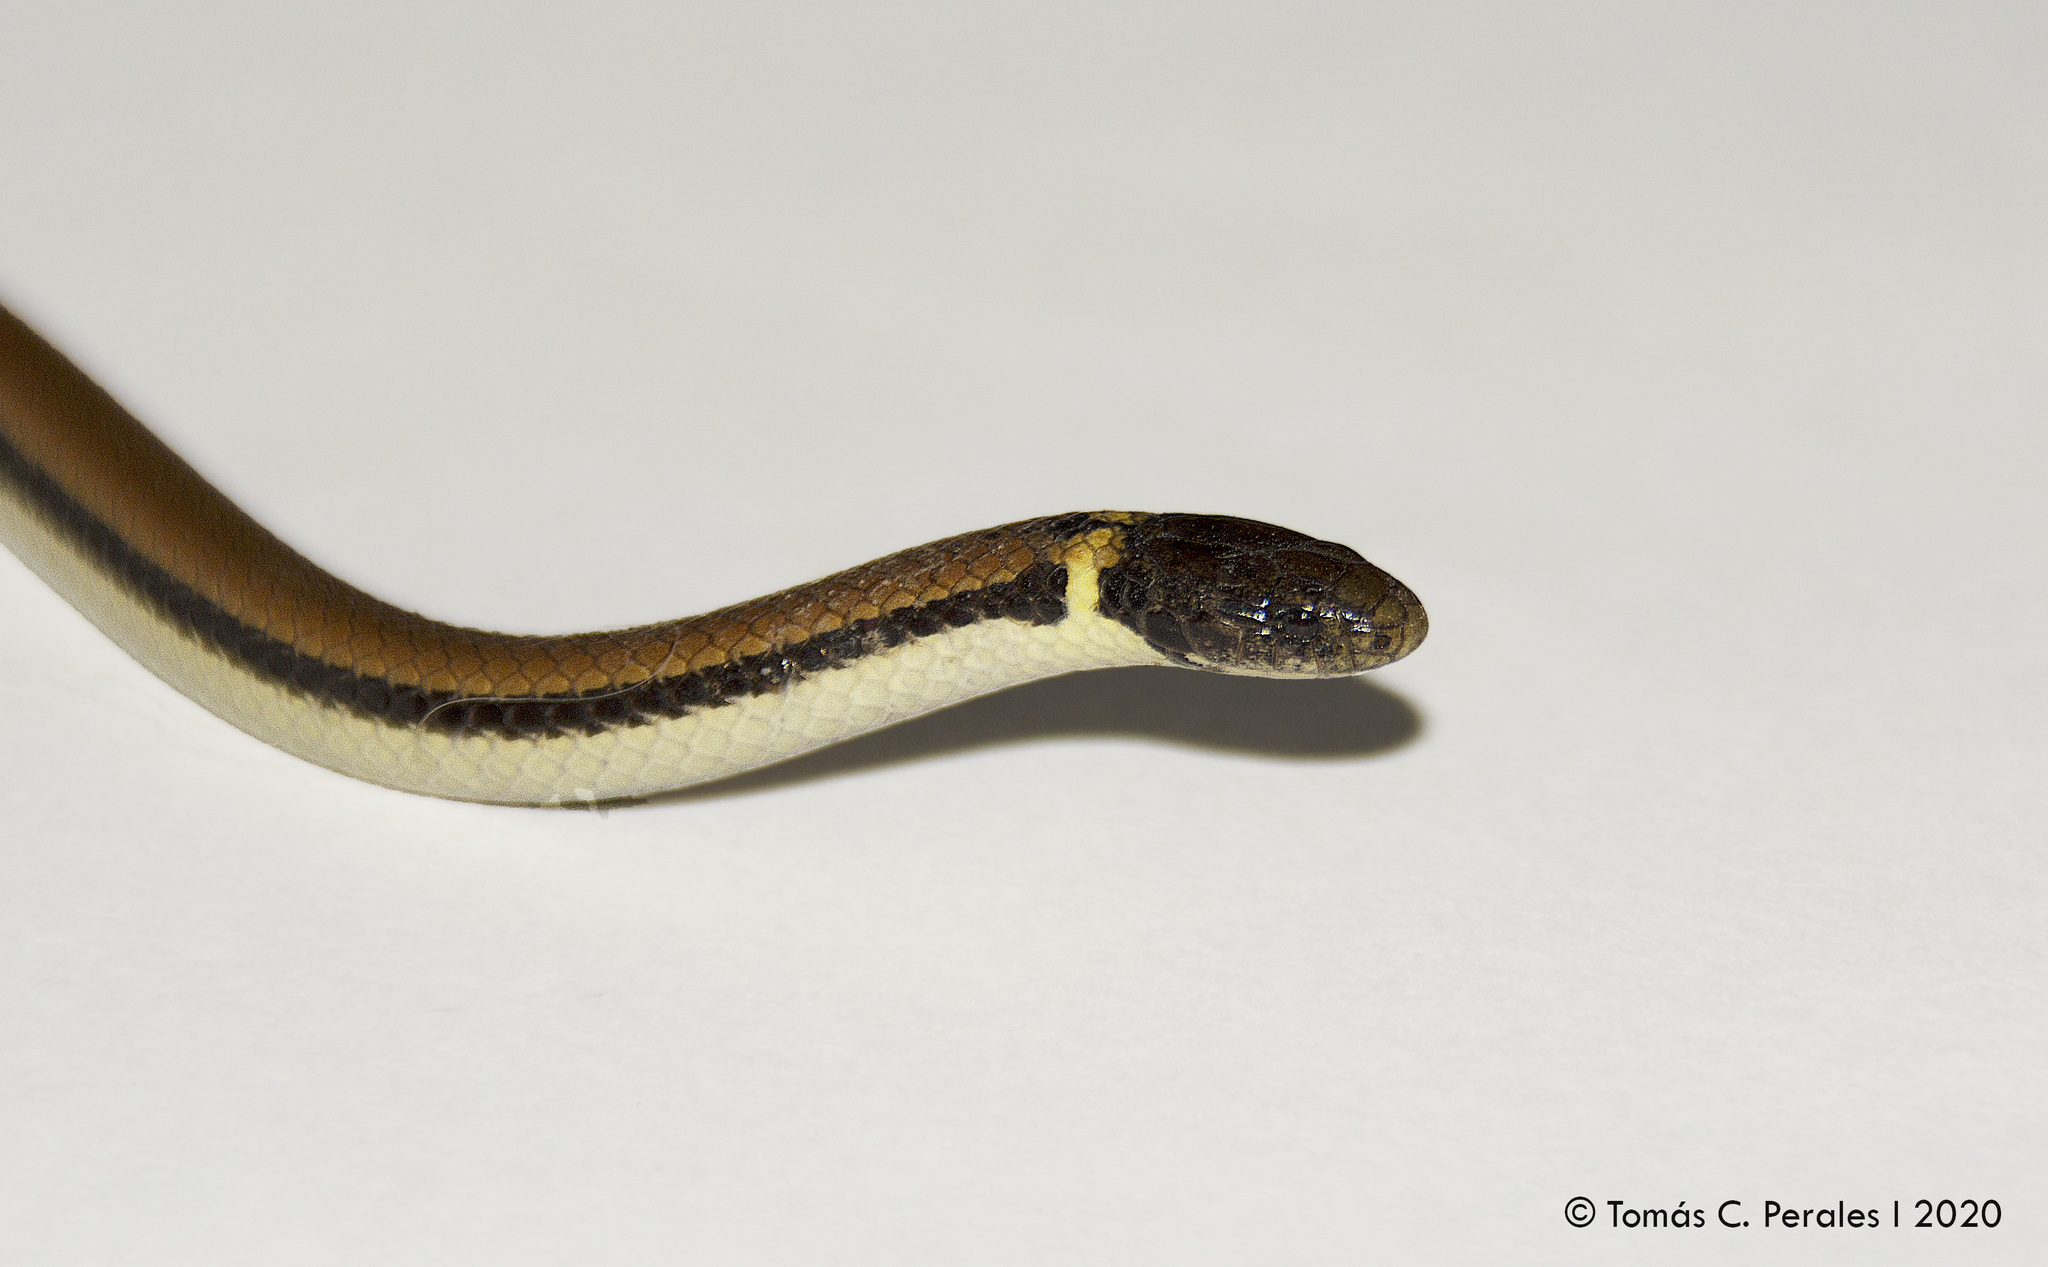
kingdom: Animalia
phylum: Chordata
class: Squamata
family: Colubridae
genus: Phalotris
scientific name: Phalotris lemniscatus
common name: Dumeril's diadem snake
